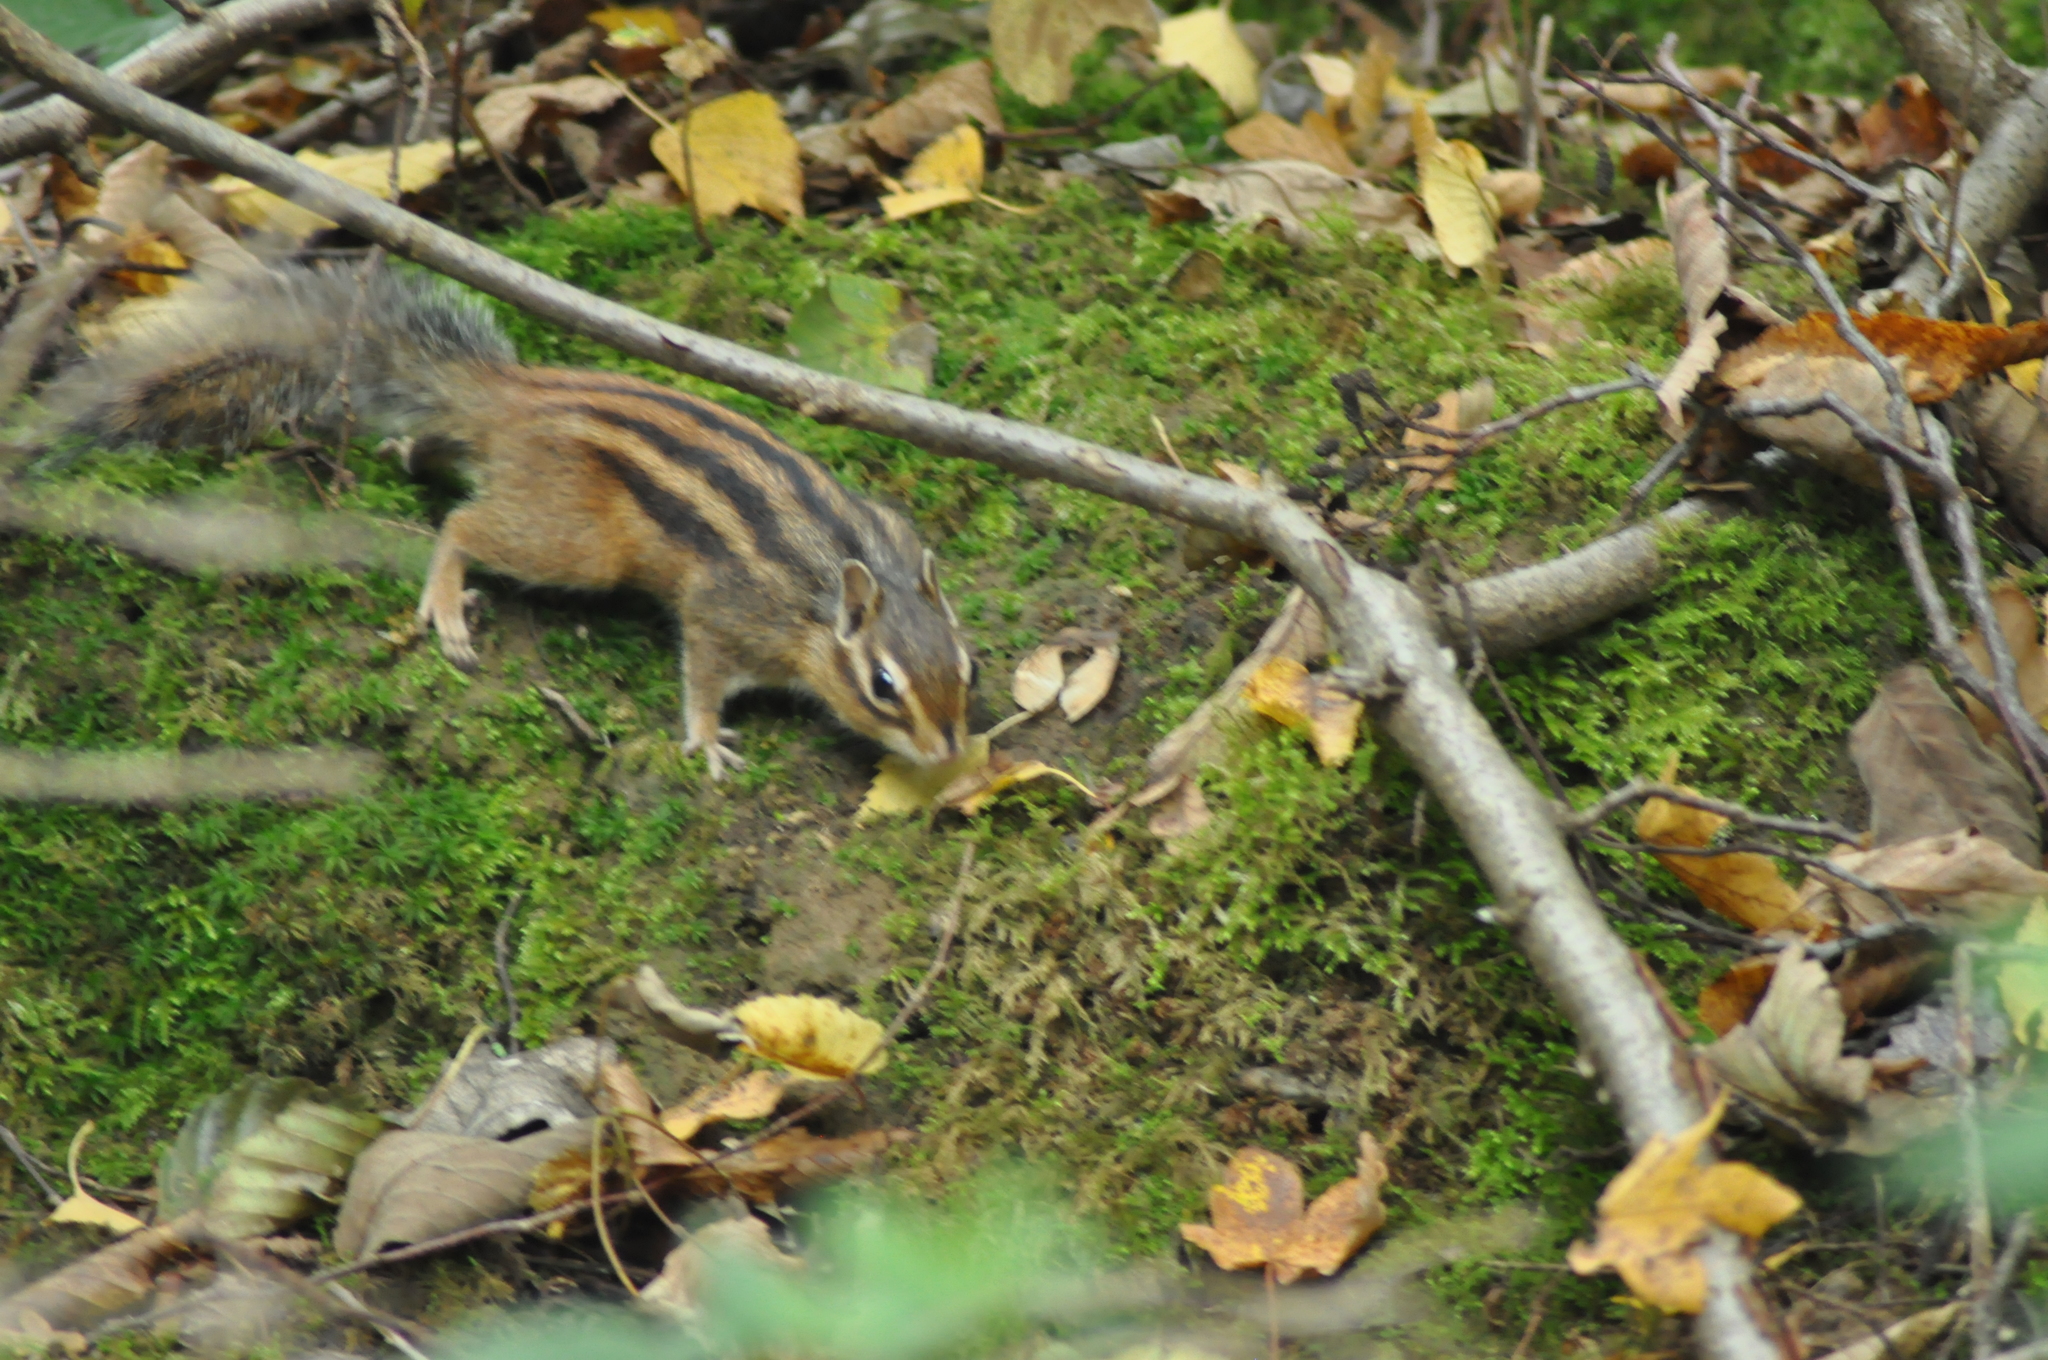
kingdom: Animalia
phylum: Chordata
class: Mammalia
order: Rodentia
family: Sciuridae
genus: Tamias
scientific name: Tamias sibiricus
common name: Siberian chipmunk
